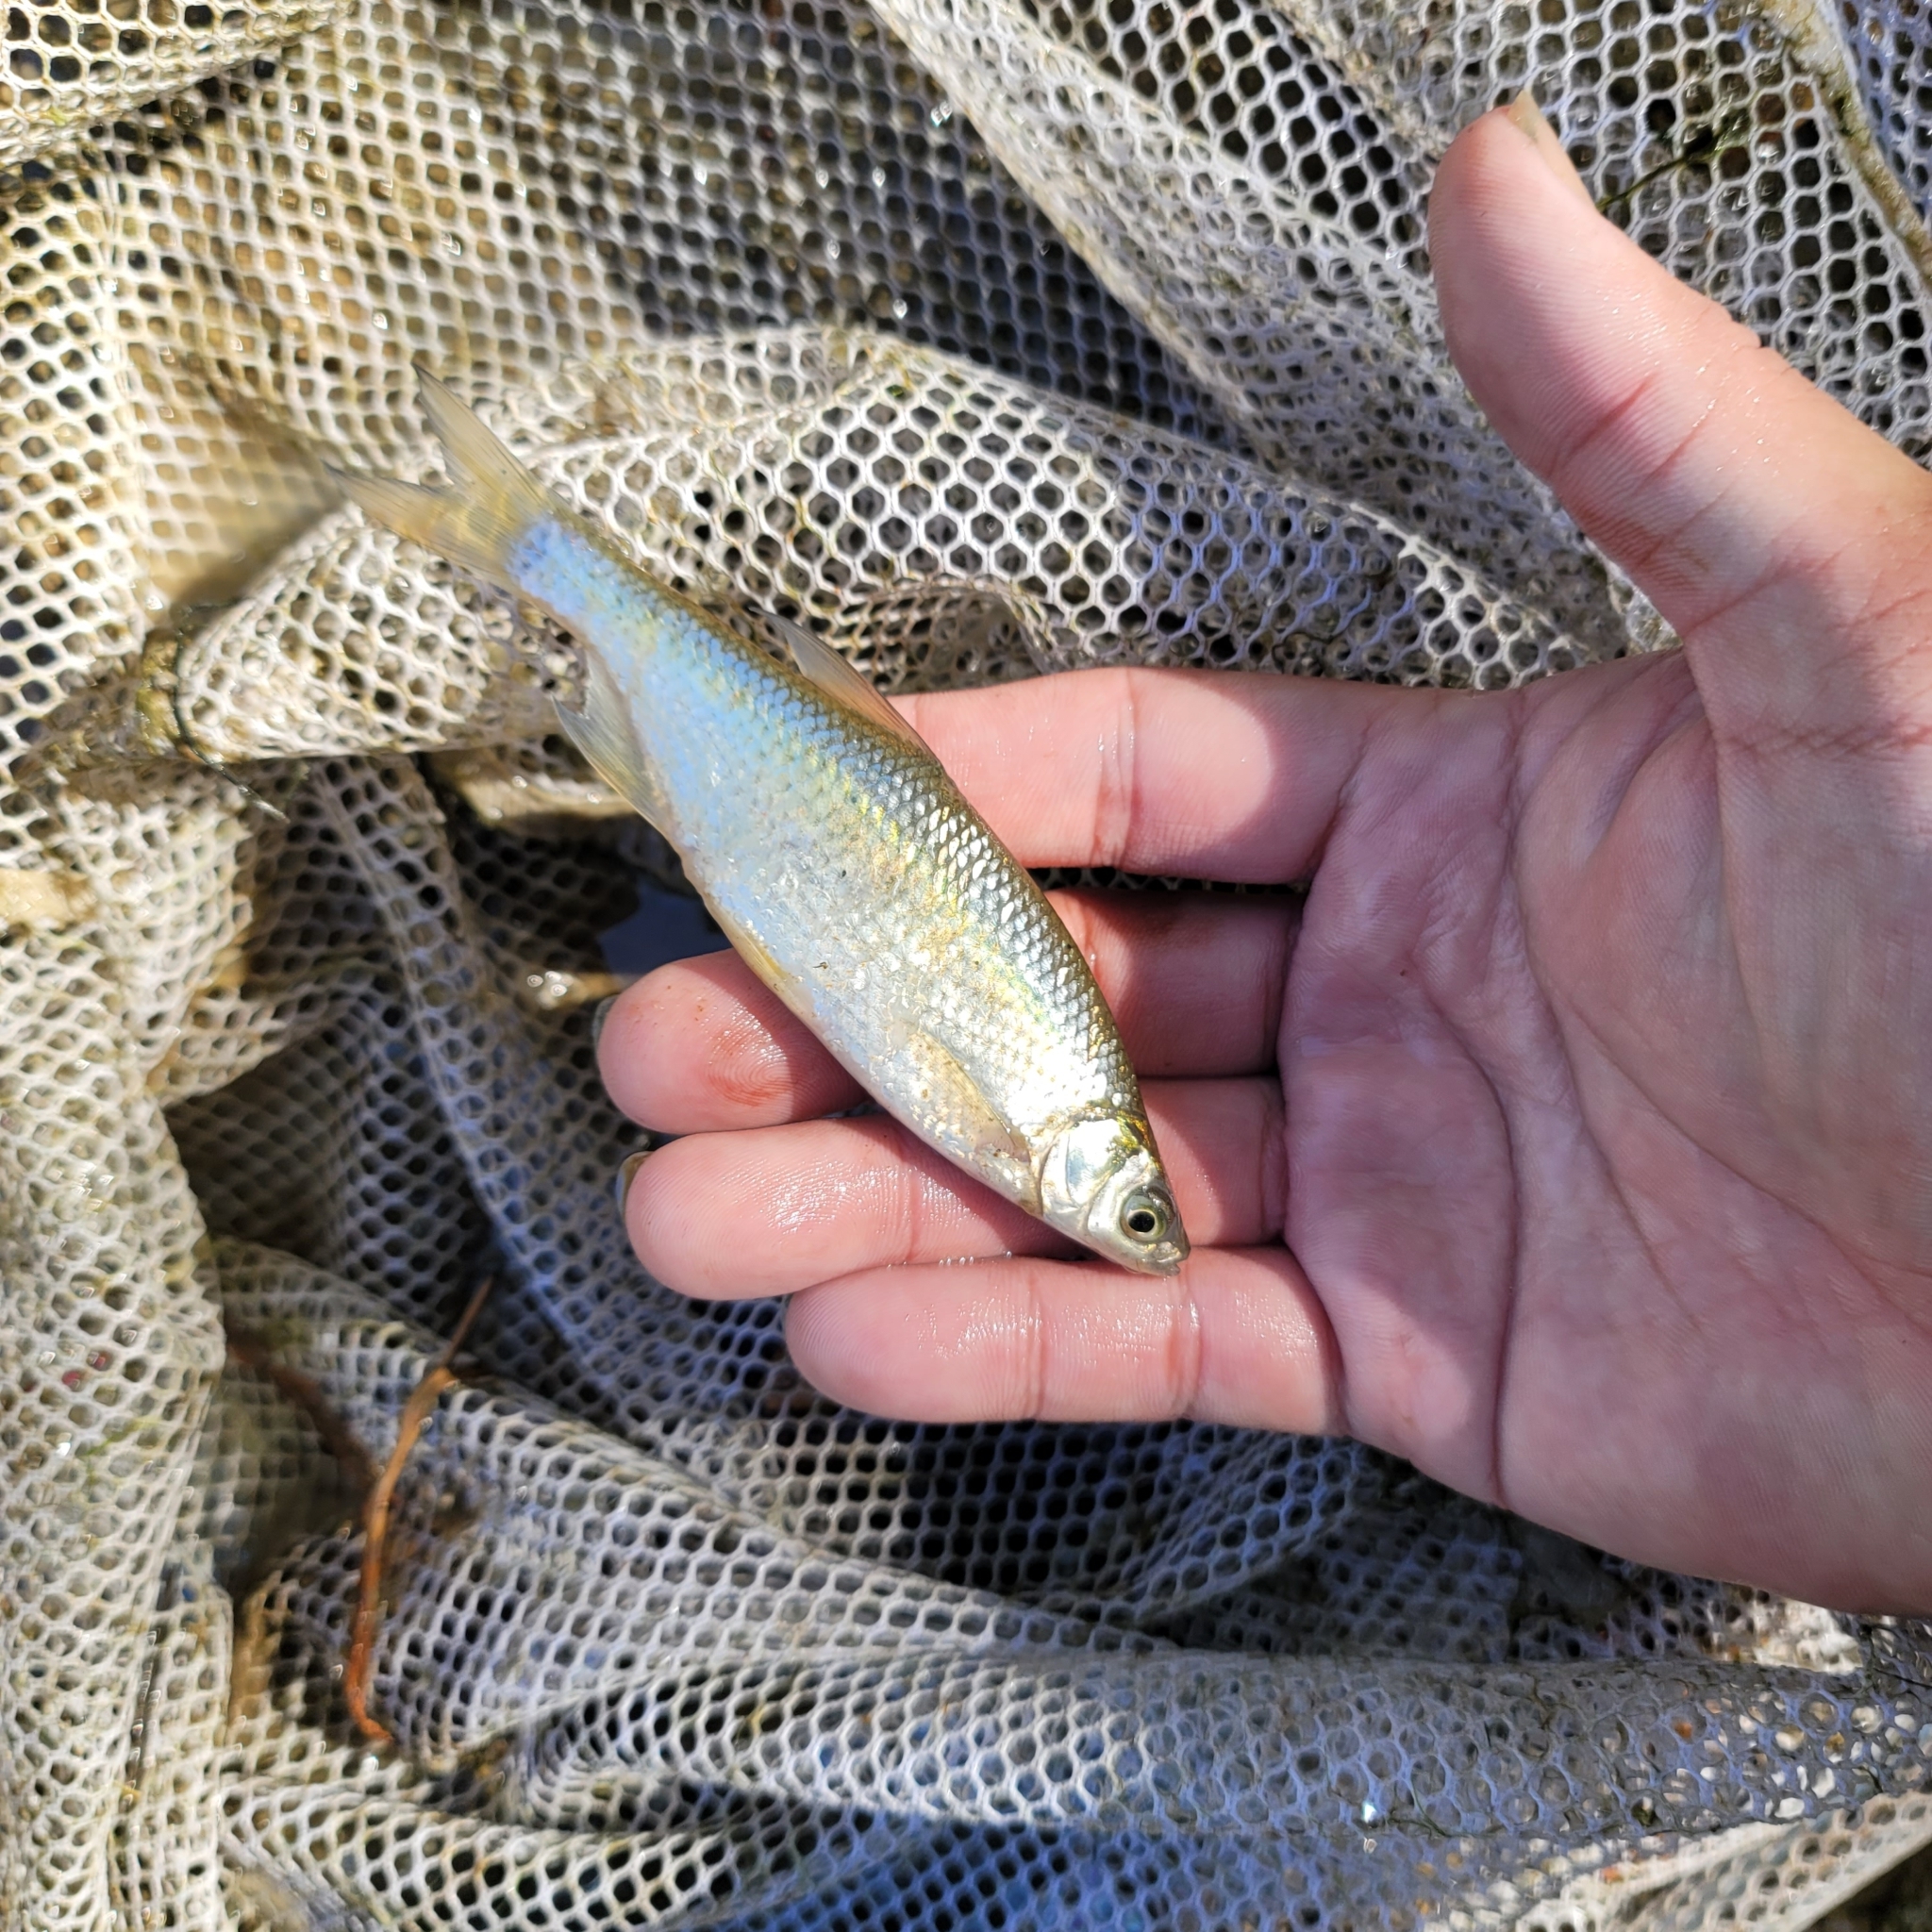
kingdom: Animalia
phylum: Chordata
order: Cypriniformes
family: Cyprinidae
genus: Notemigonus
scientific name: Notemigonus crysoleucas
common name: Golden shiner
